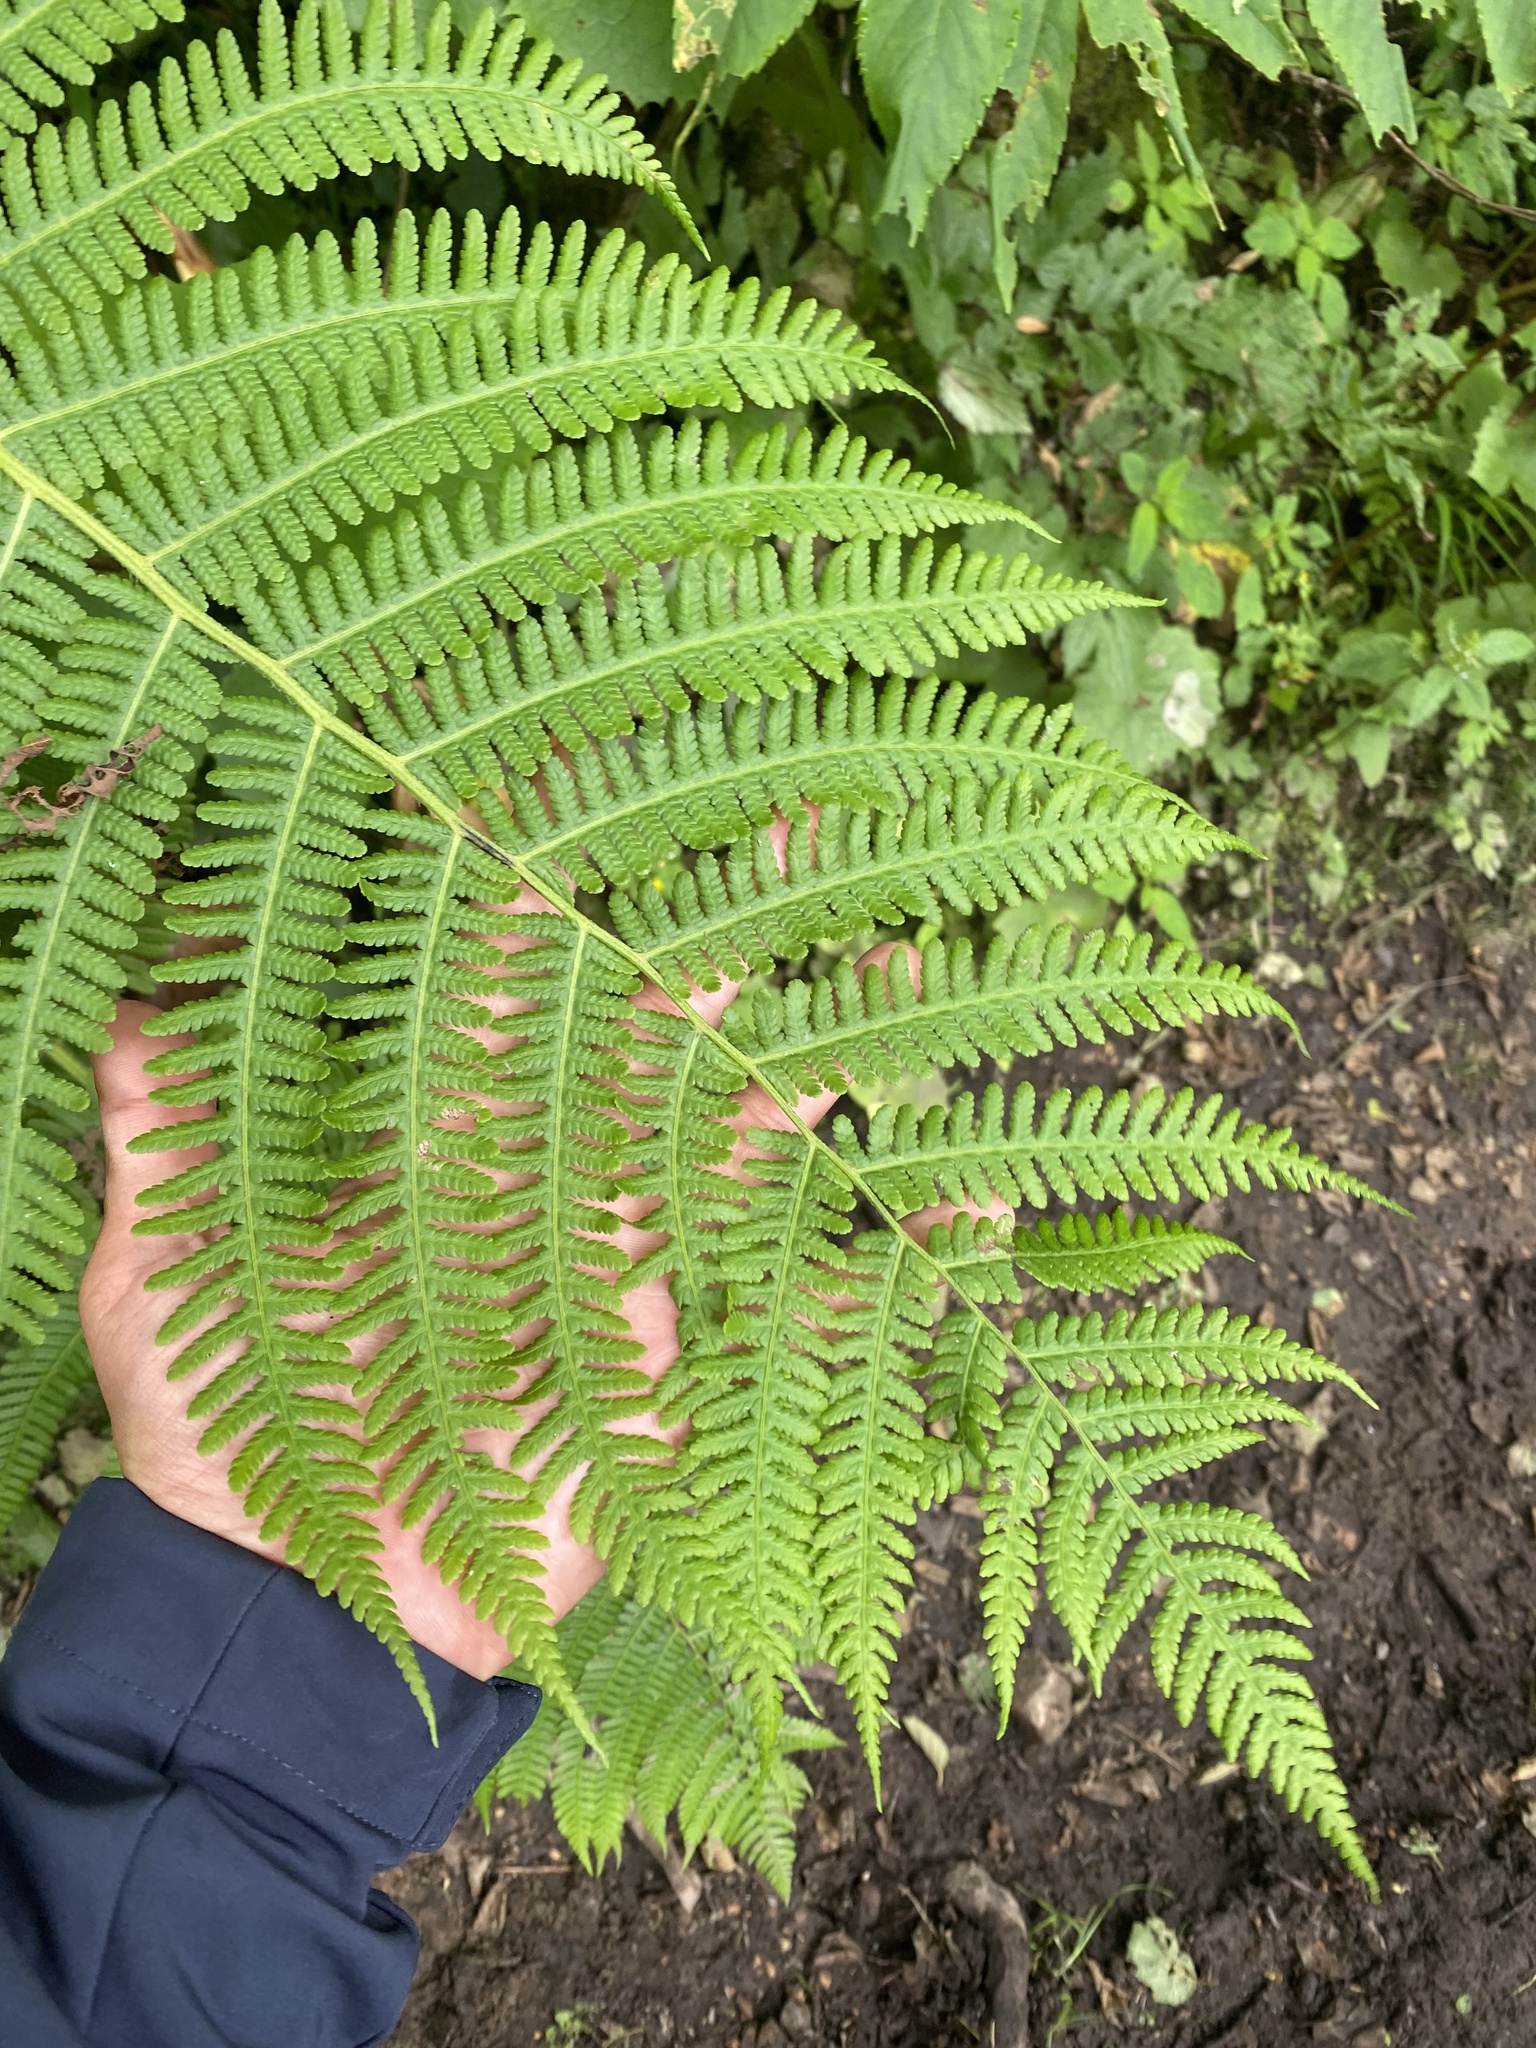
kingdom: Plantae
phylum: Tracheophyta
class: Polypodiopsida
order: Polypodiales
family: Athyriaceae
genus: Deparia
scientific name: Deparia pterorachis
